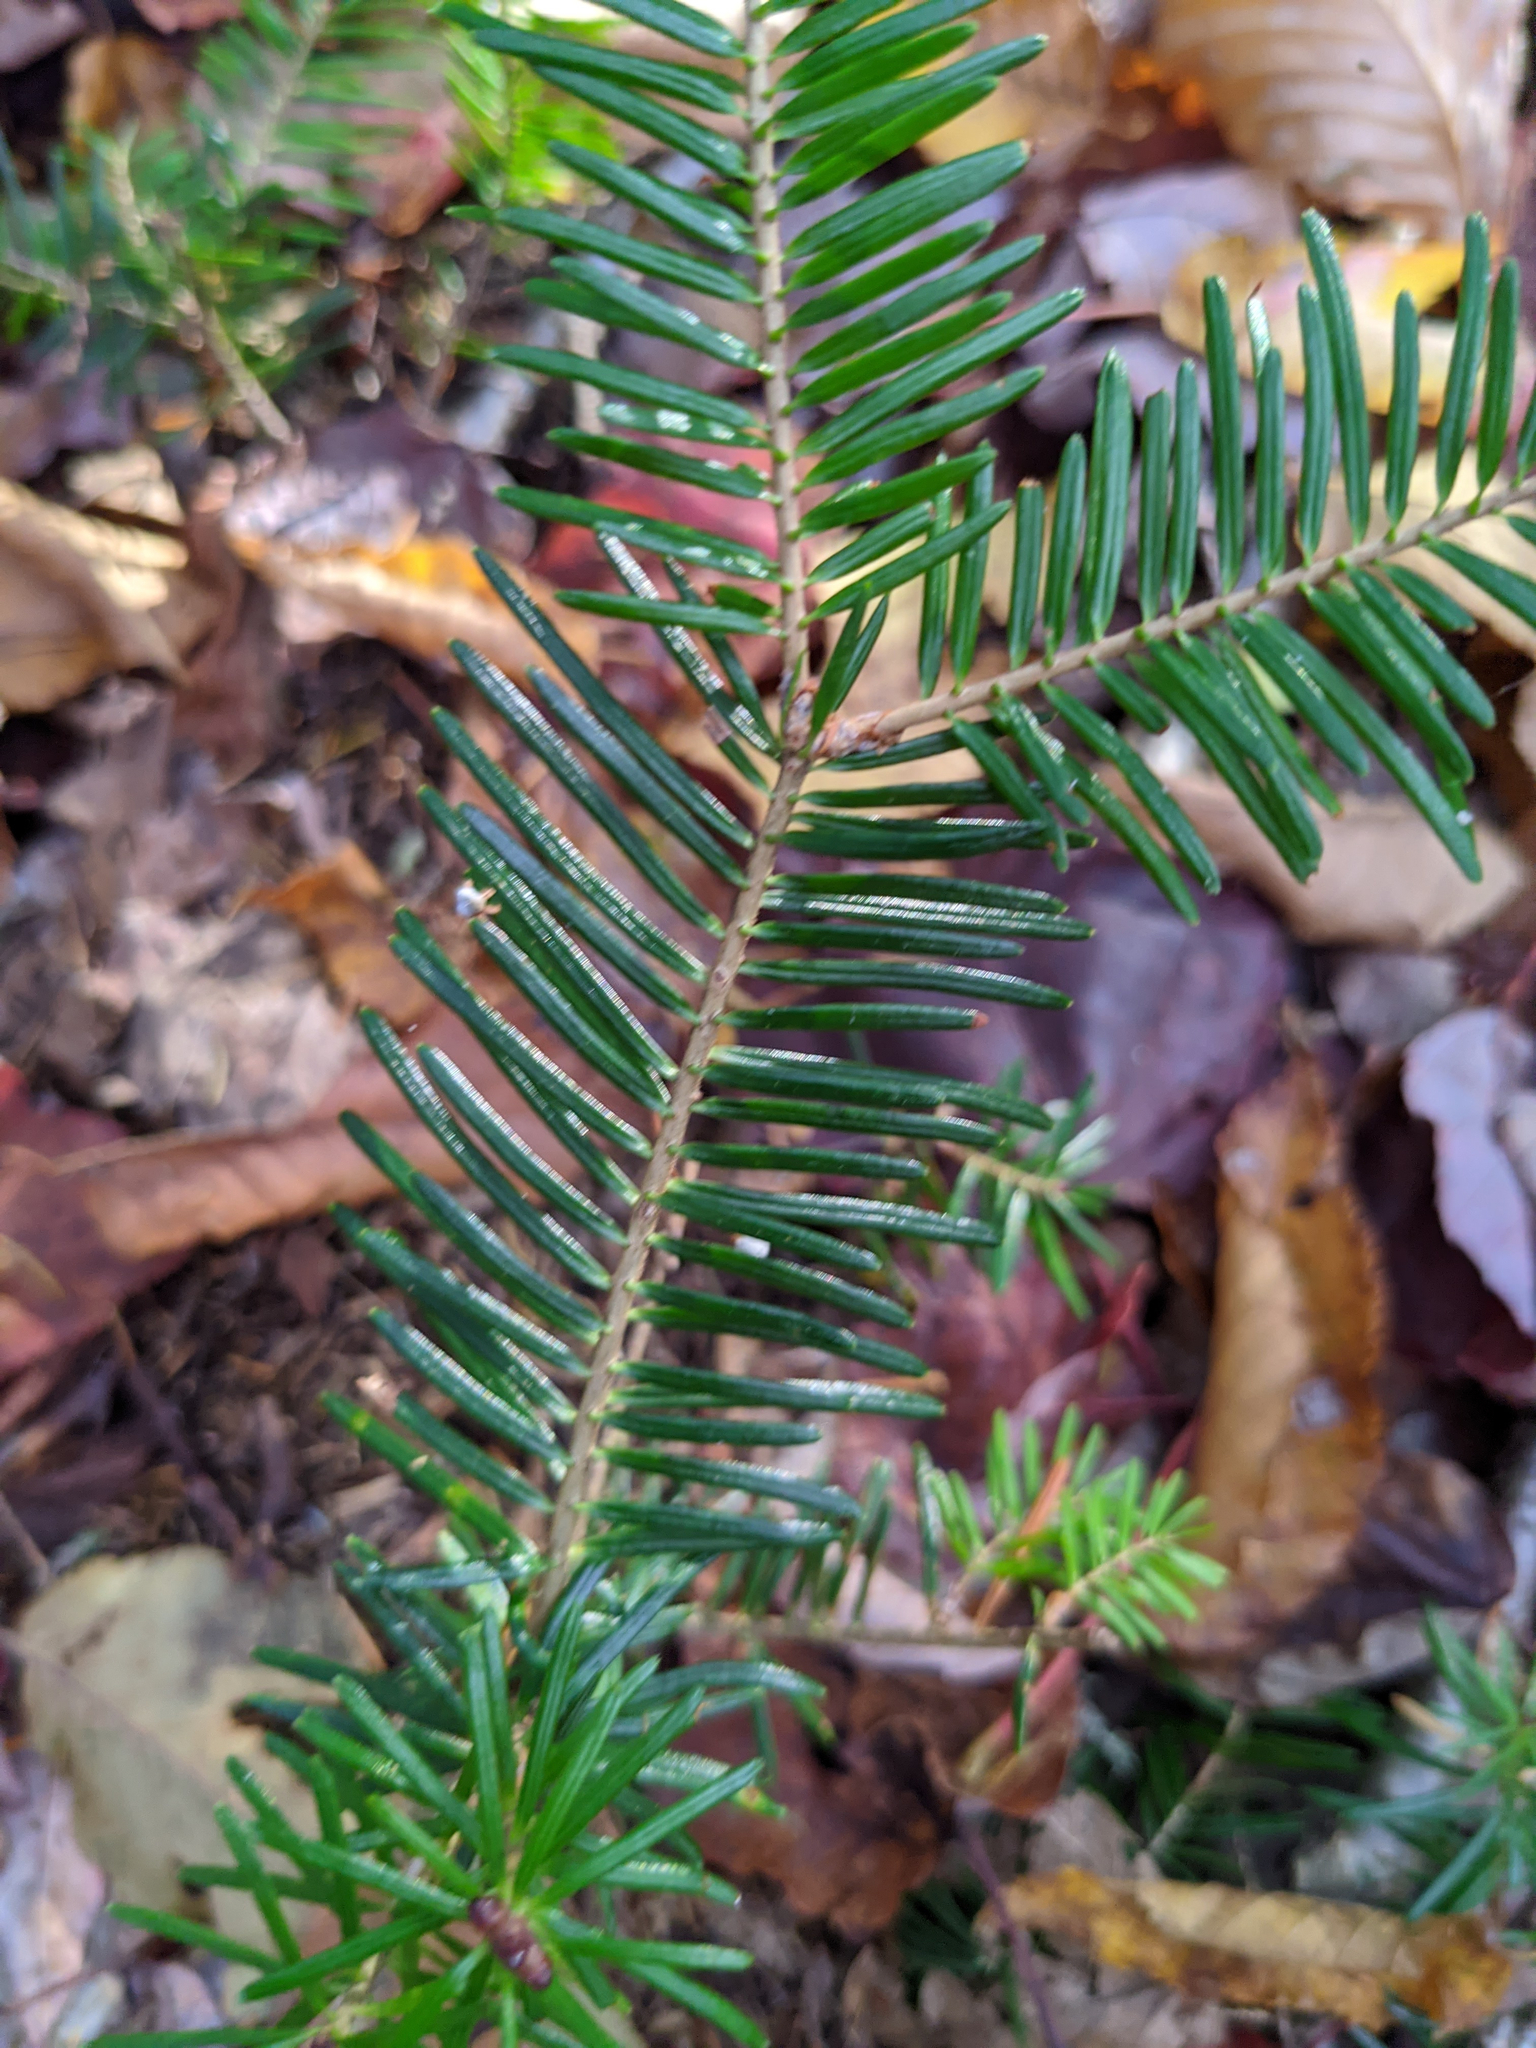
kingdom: Plantae
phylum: Tracheophyta
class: Pinopsida
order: Pinales
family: Pinaceae
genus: Abies
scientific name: Abies balsamea
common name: Balsam fir
